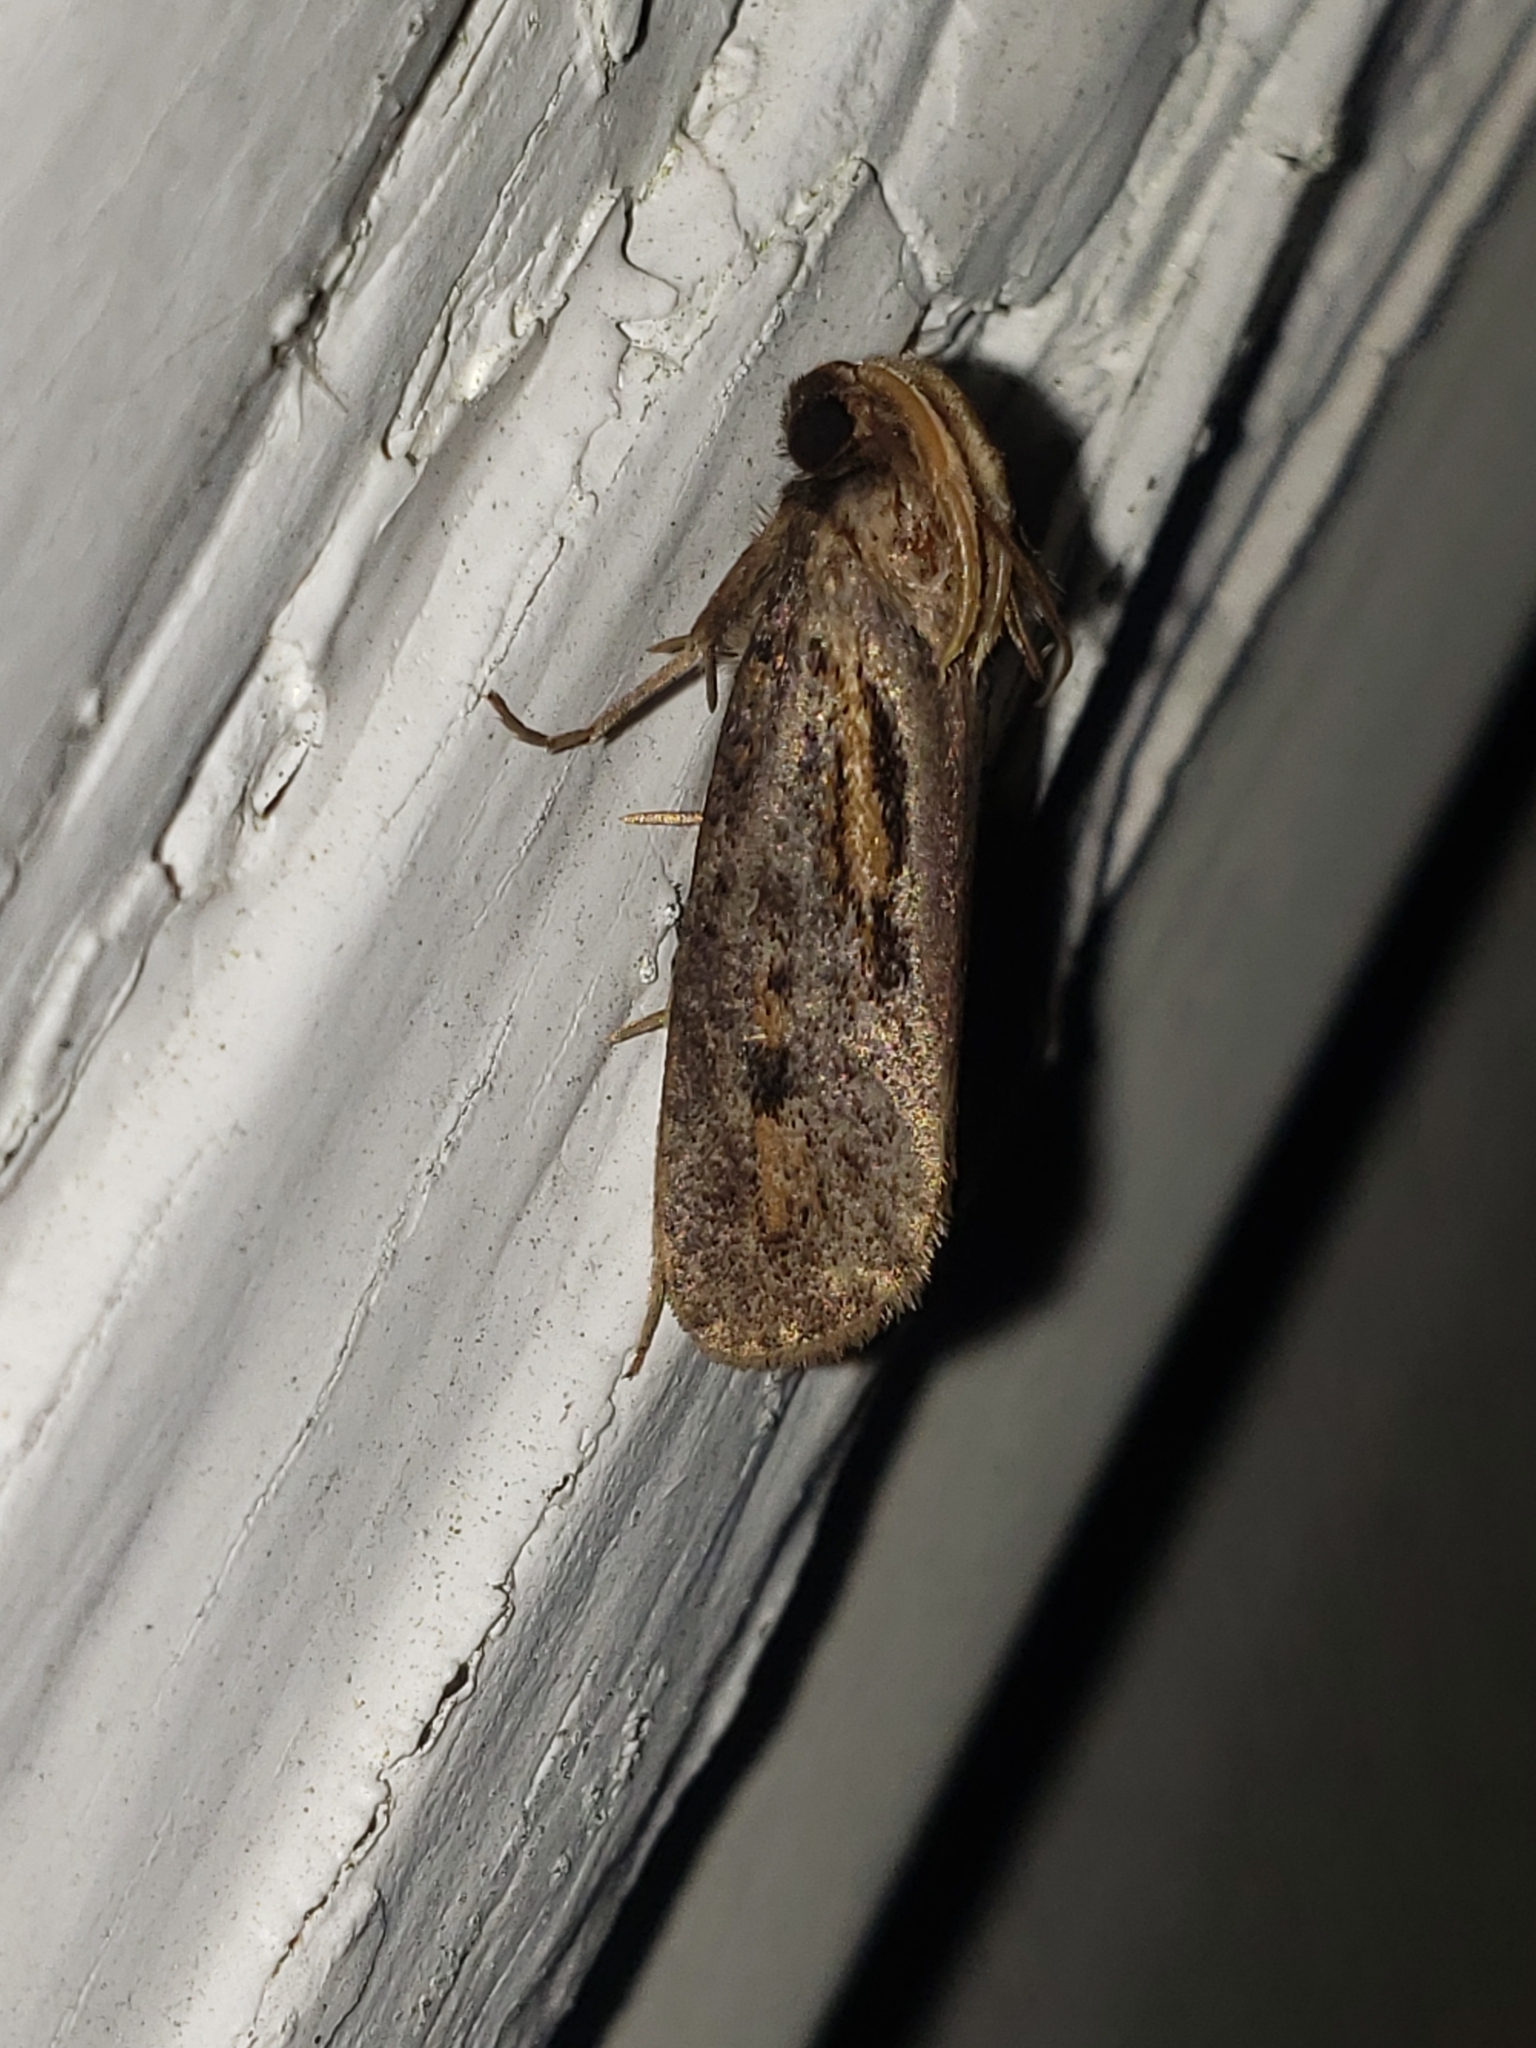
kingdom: Animalia
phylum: Arthropoda
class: Insecta
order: Lepidoptera
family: Tineidae
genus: Acrolophus
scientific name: Acrolophus popeanella
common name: Clemens' grass tubeworm moth
